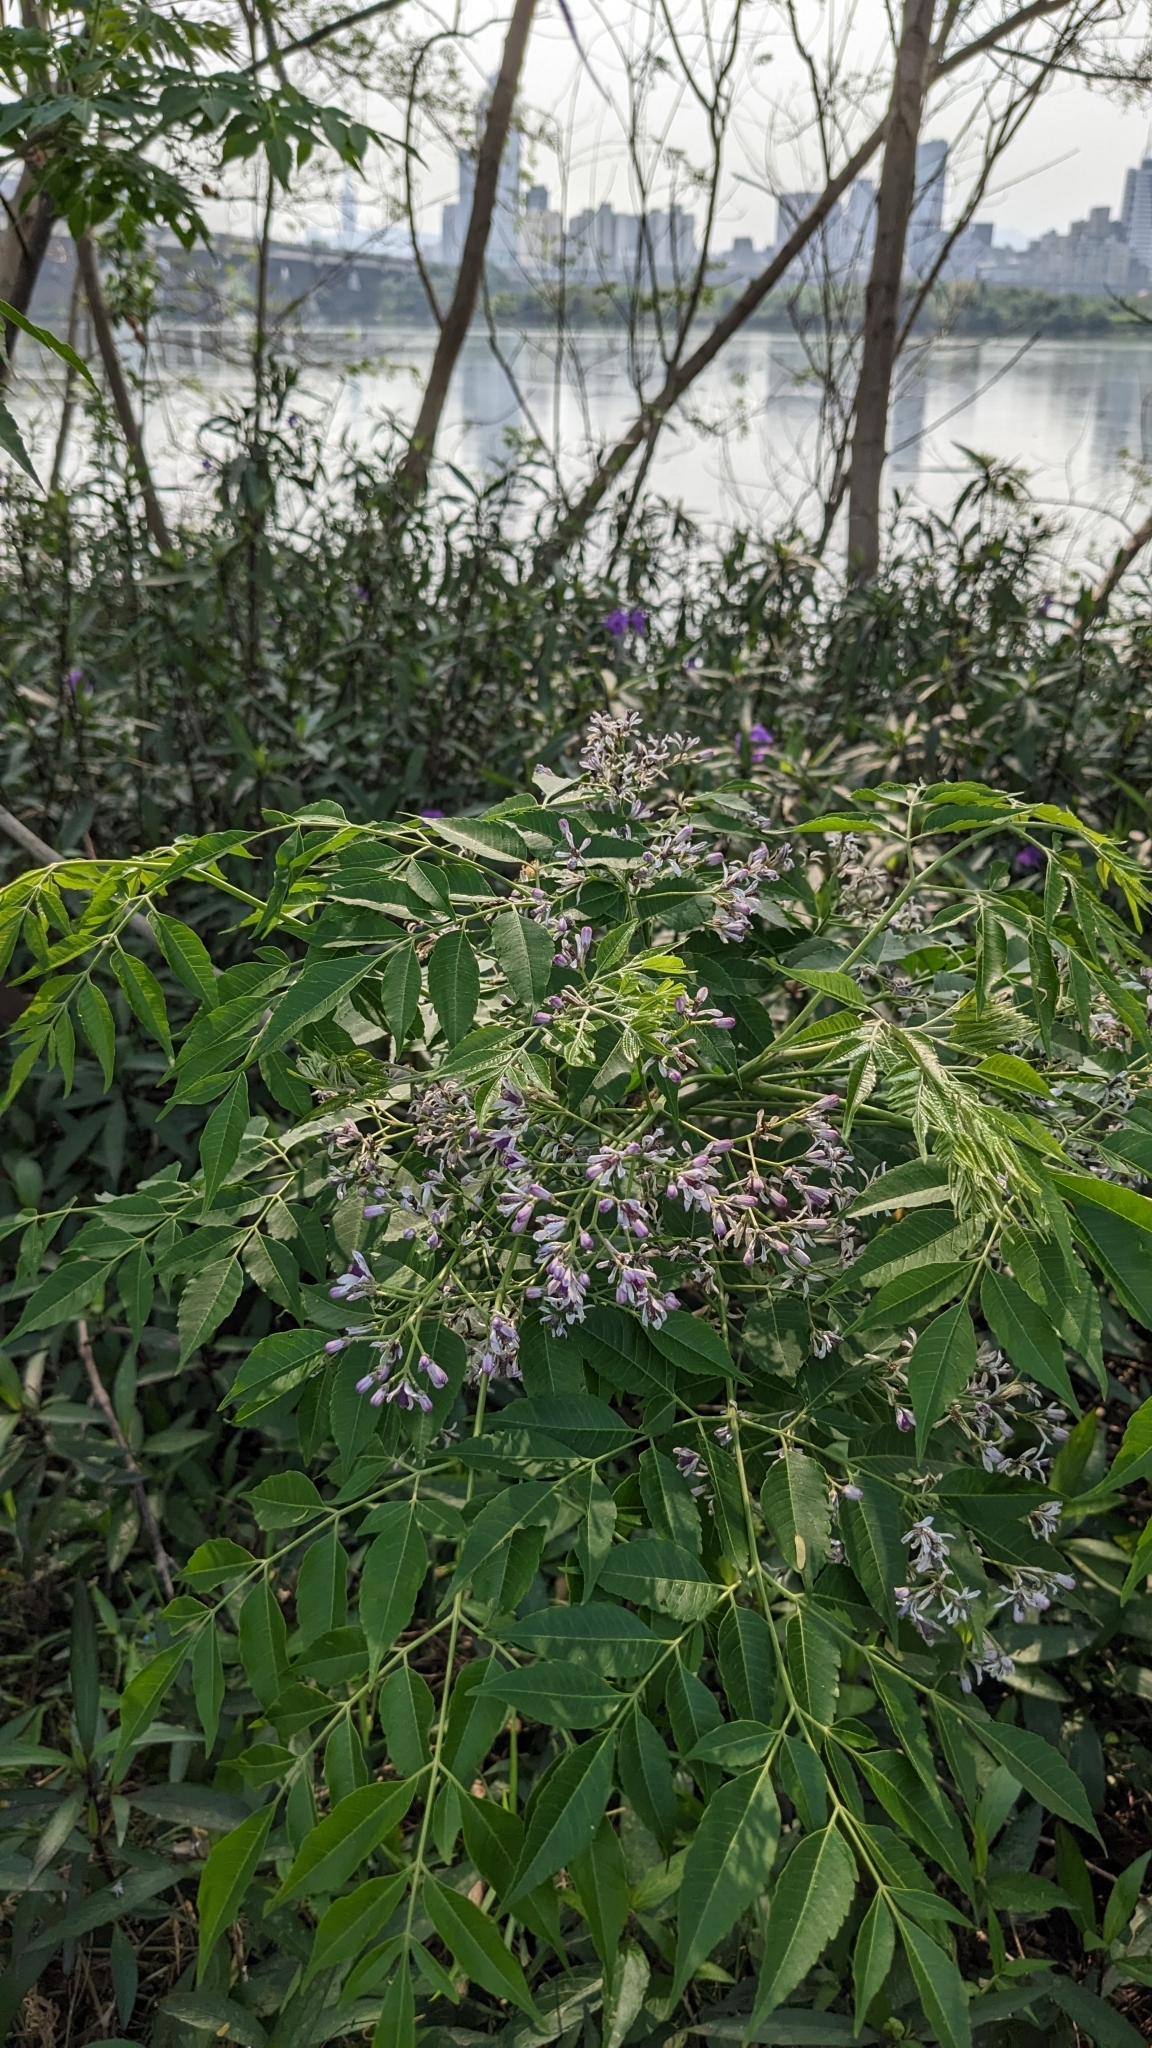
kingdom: Plantae
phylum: Tracheophyta
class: Magnoliopsida
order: Sapindales
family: Meliaceae
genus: Melia
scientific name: Melia azedarach
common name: Chinaberrytree
